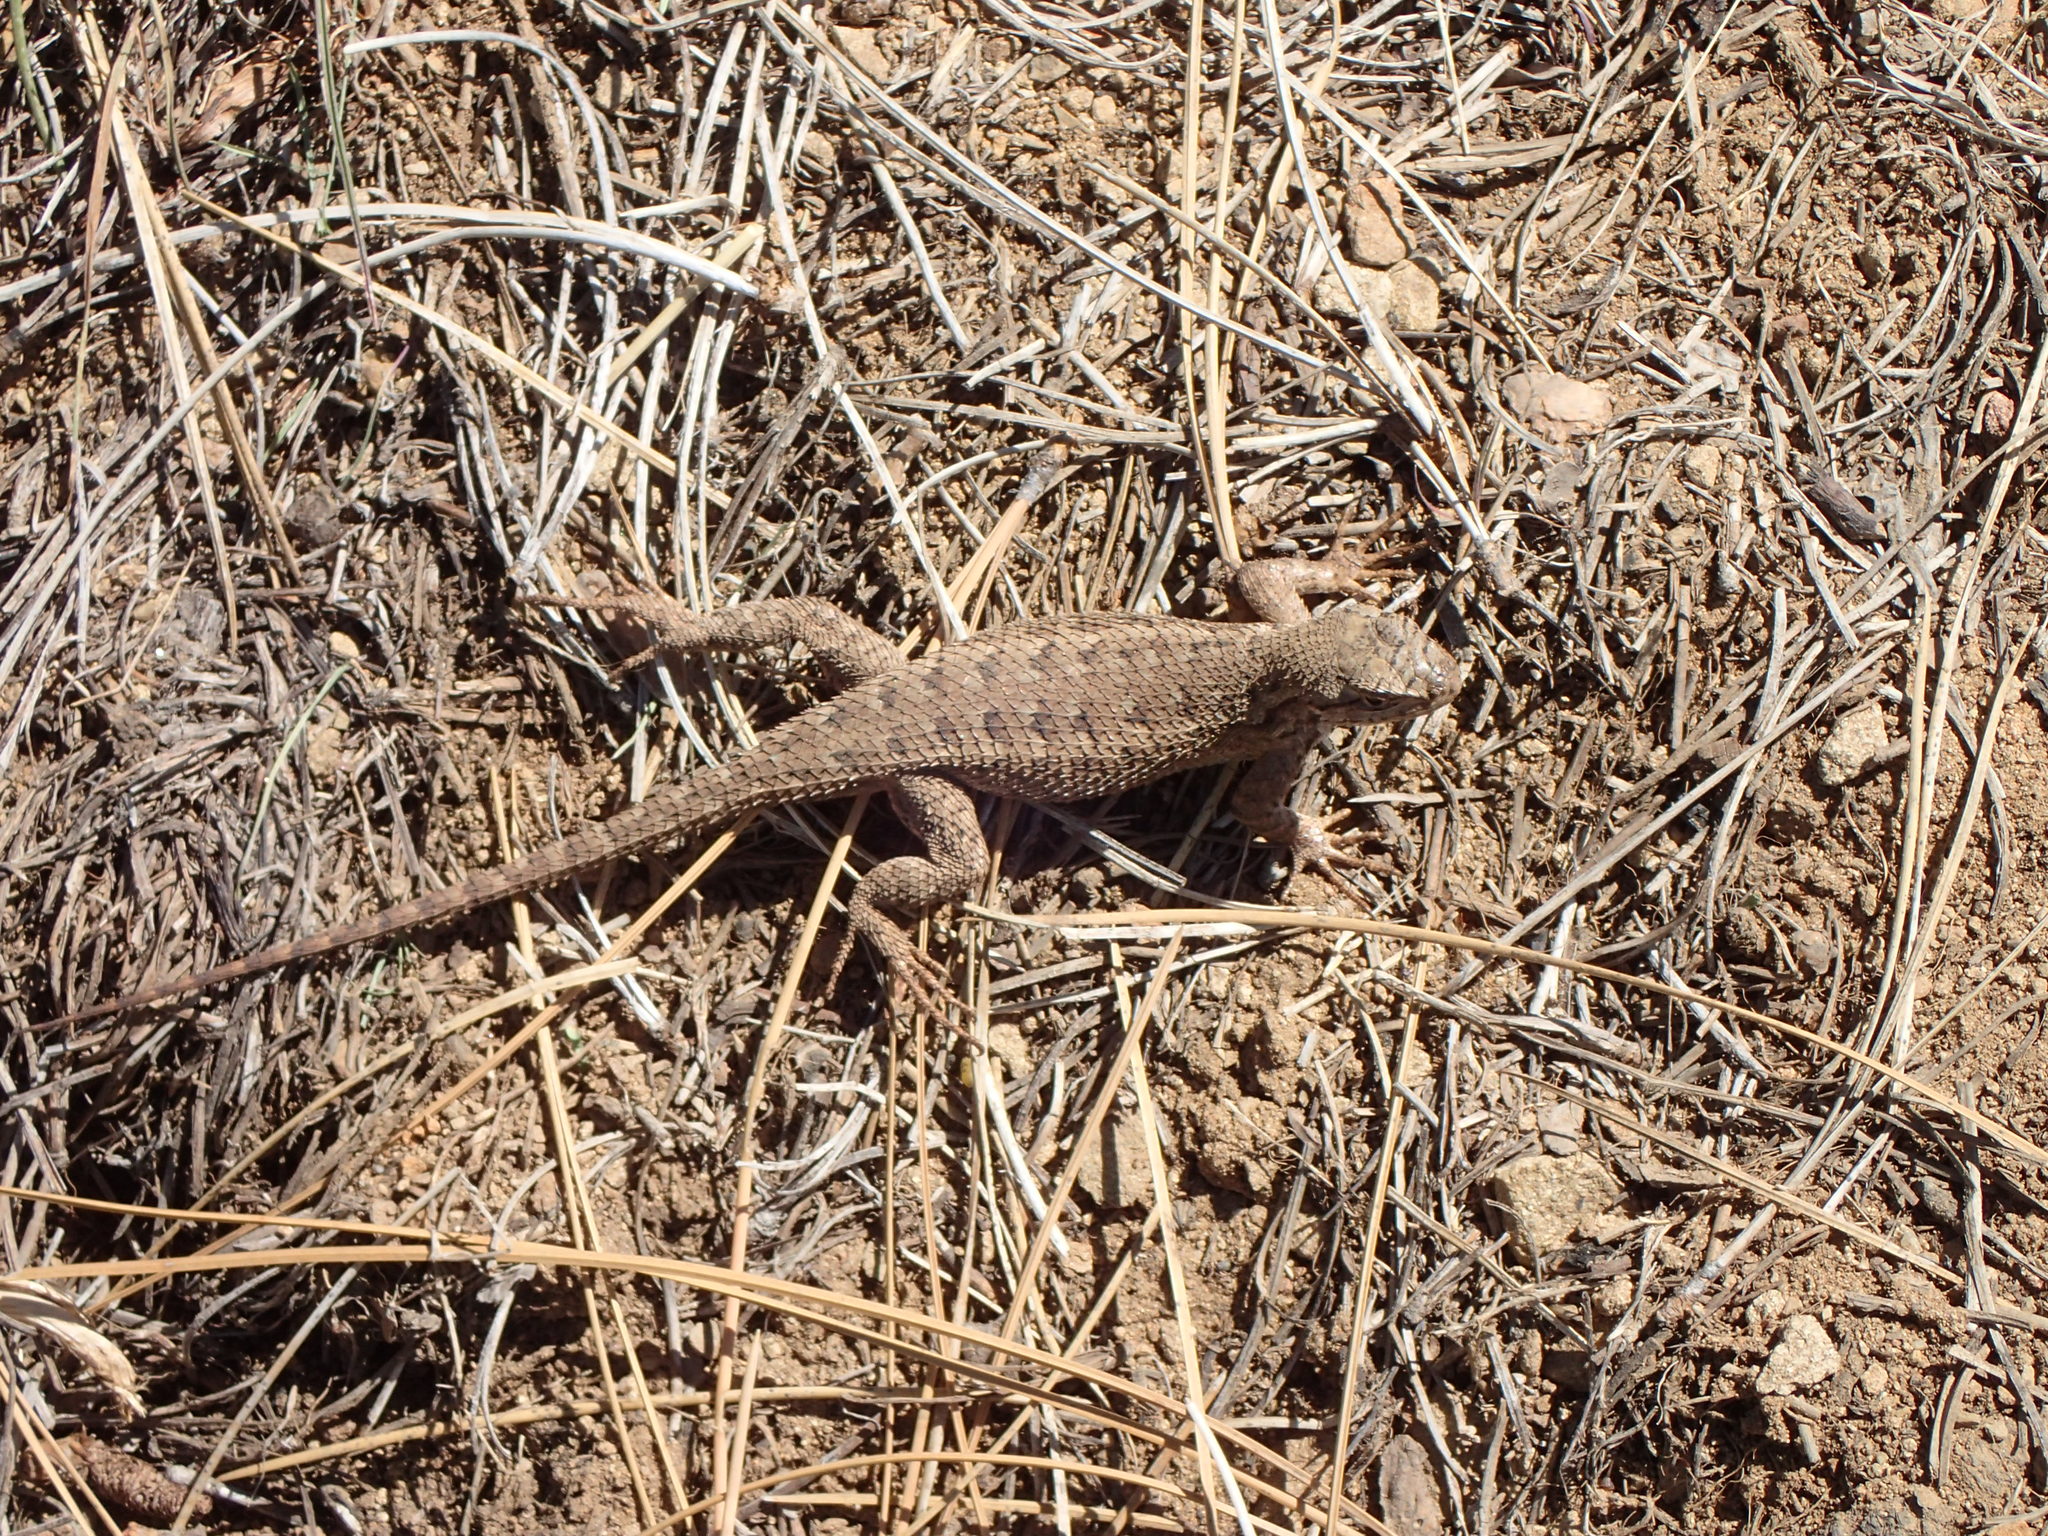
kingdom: Animalia
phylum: Chordata
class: Squamata
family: Phrynosomatidae
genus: Sceloporus
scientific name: Sceloporus occidentalis
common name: Western fence lizard
